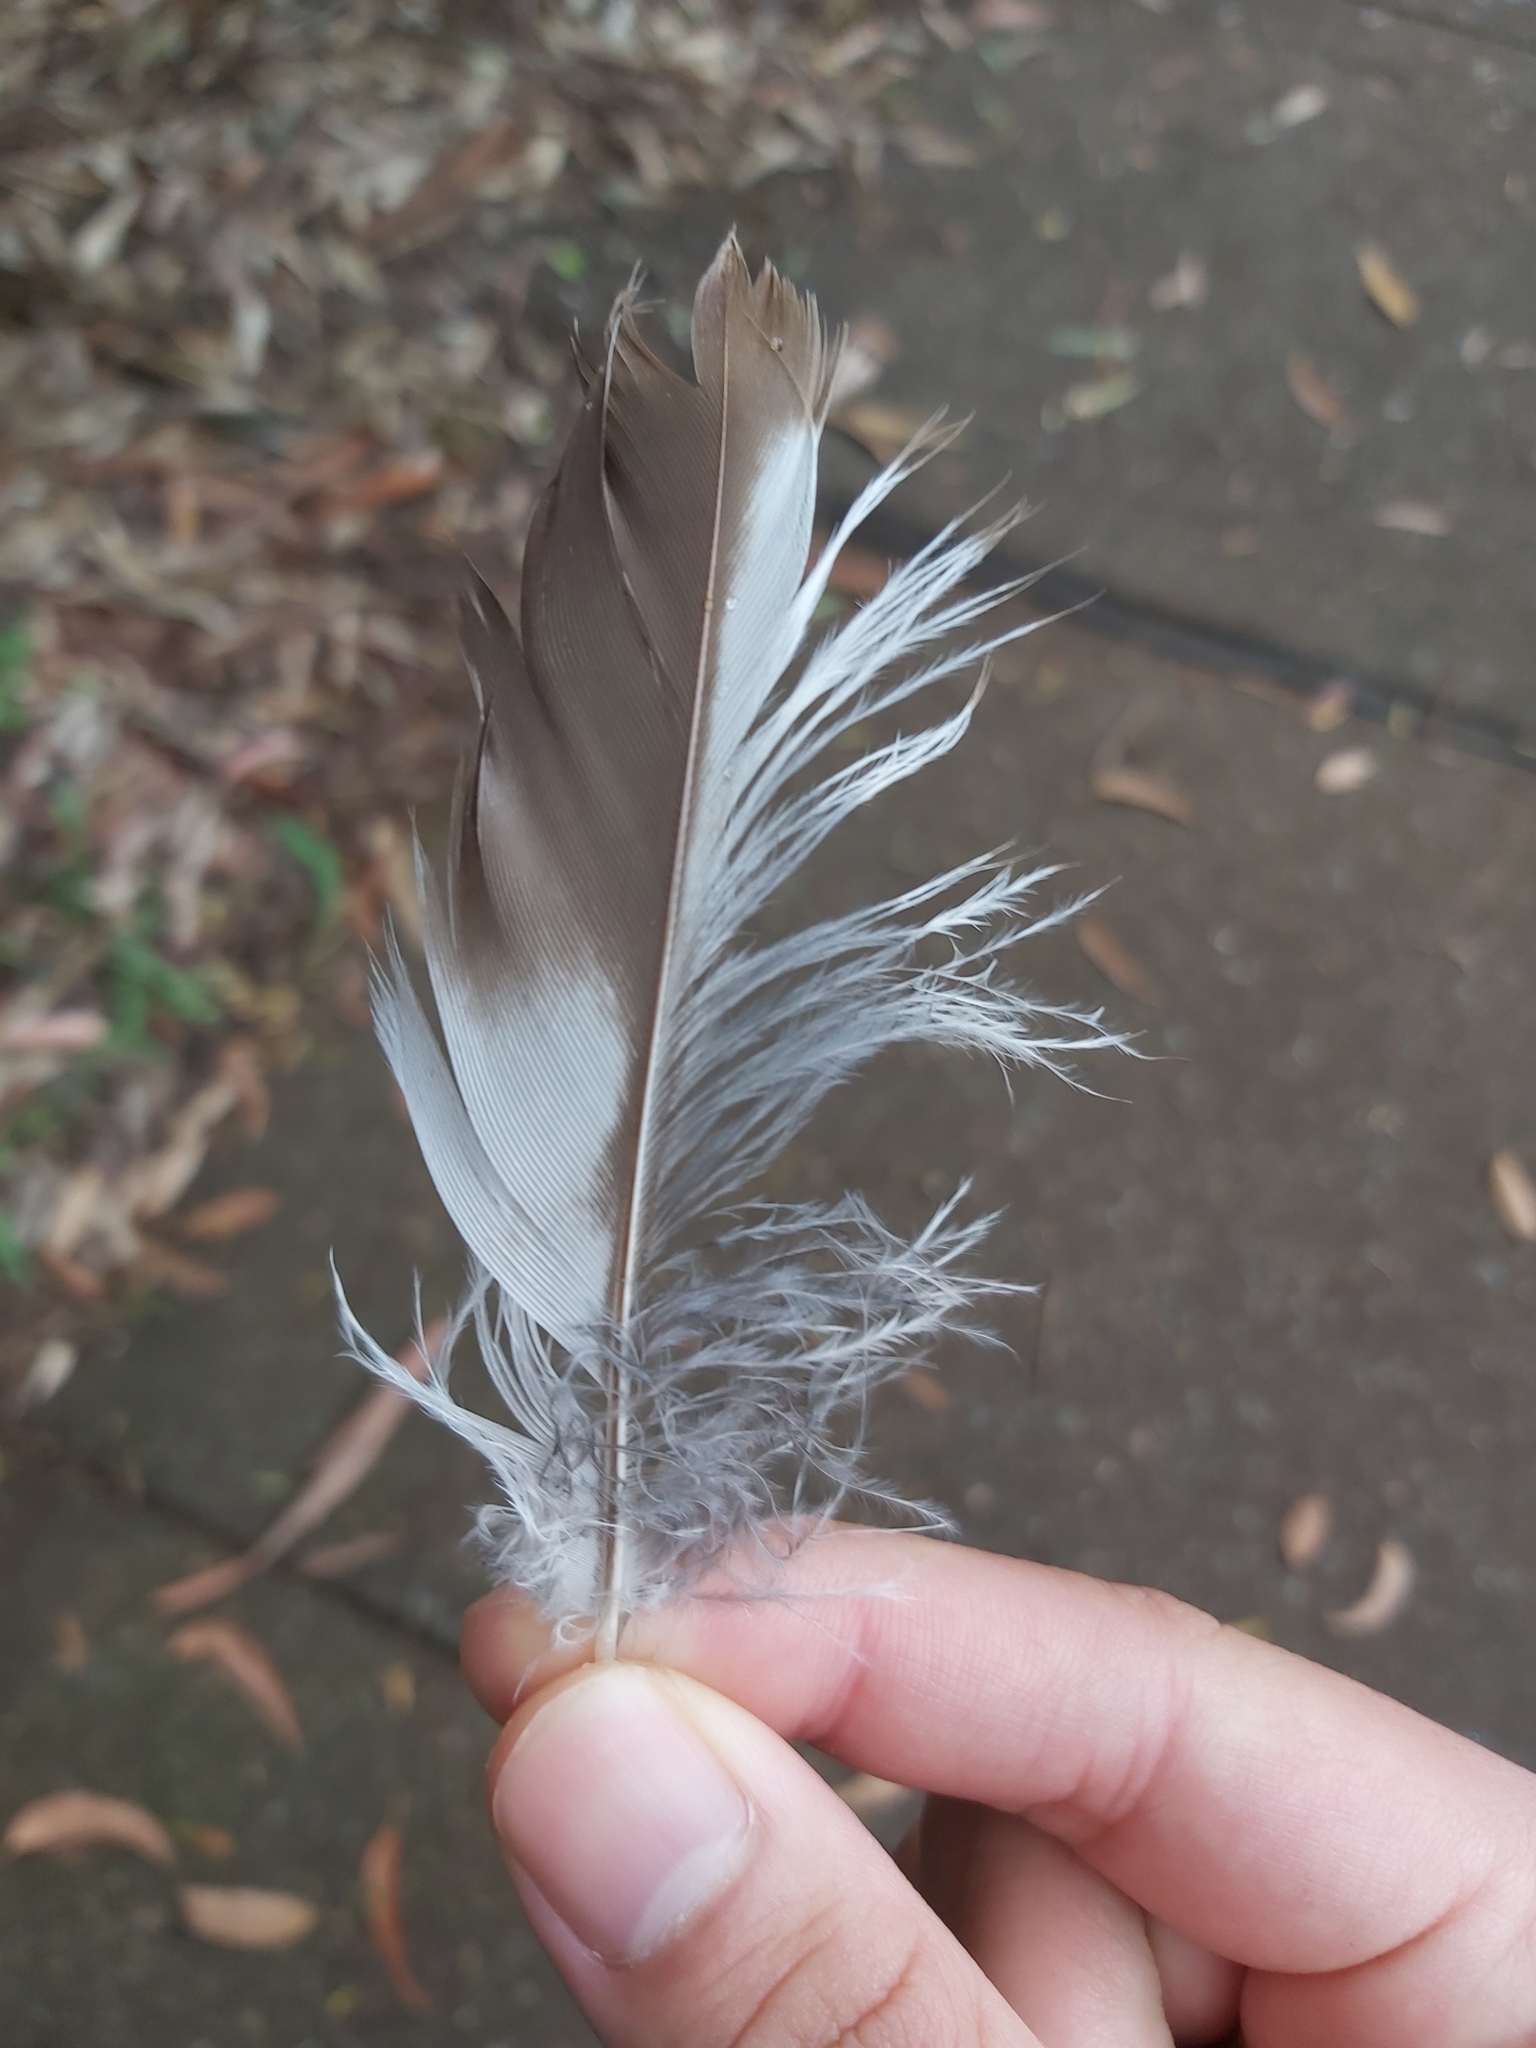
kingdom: Animalia
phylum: Chordata
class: Aves
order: Coraciiformes
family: Alcedinidae
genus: Dacelo
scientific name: Dacelo novaeguineae
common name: Laughing kookaburra
